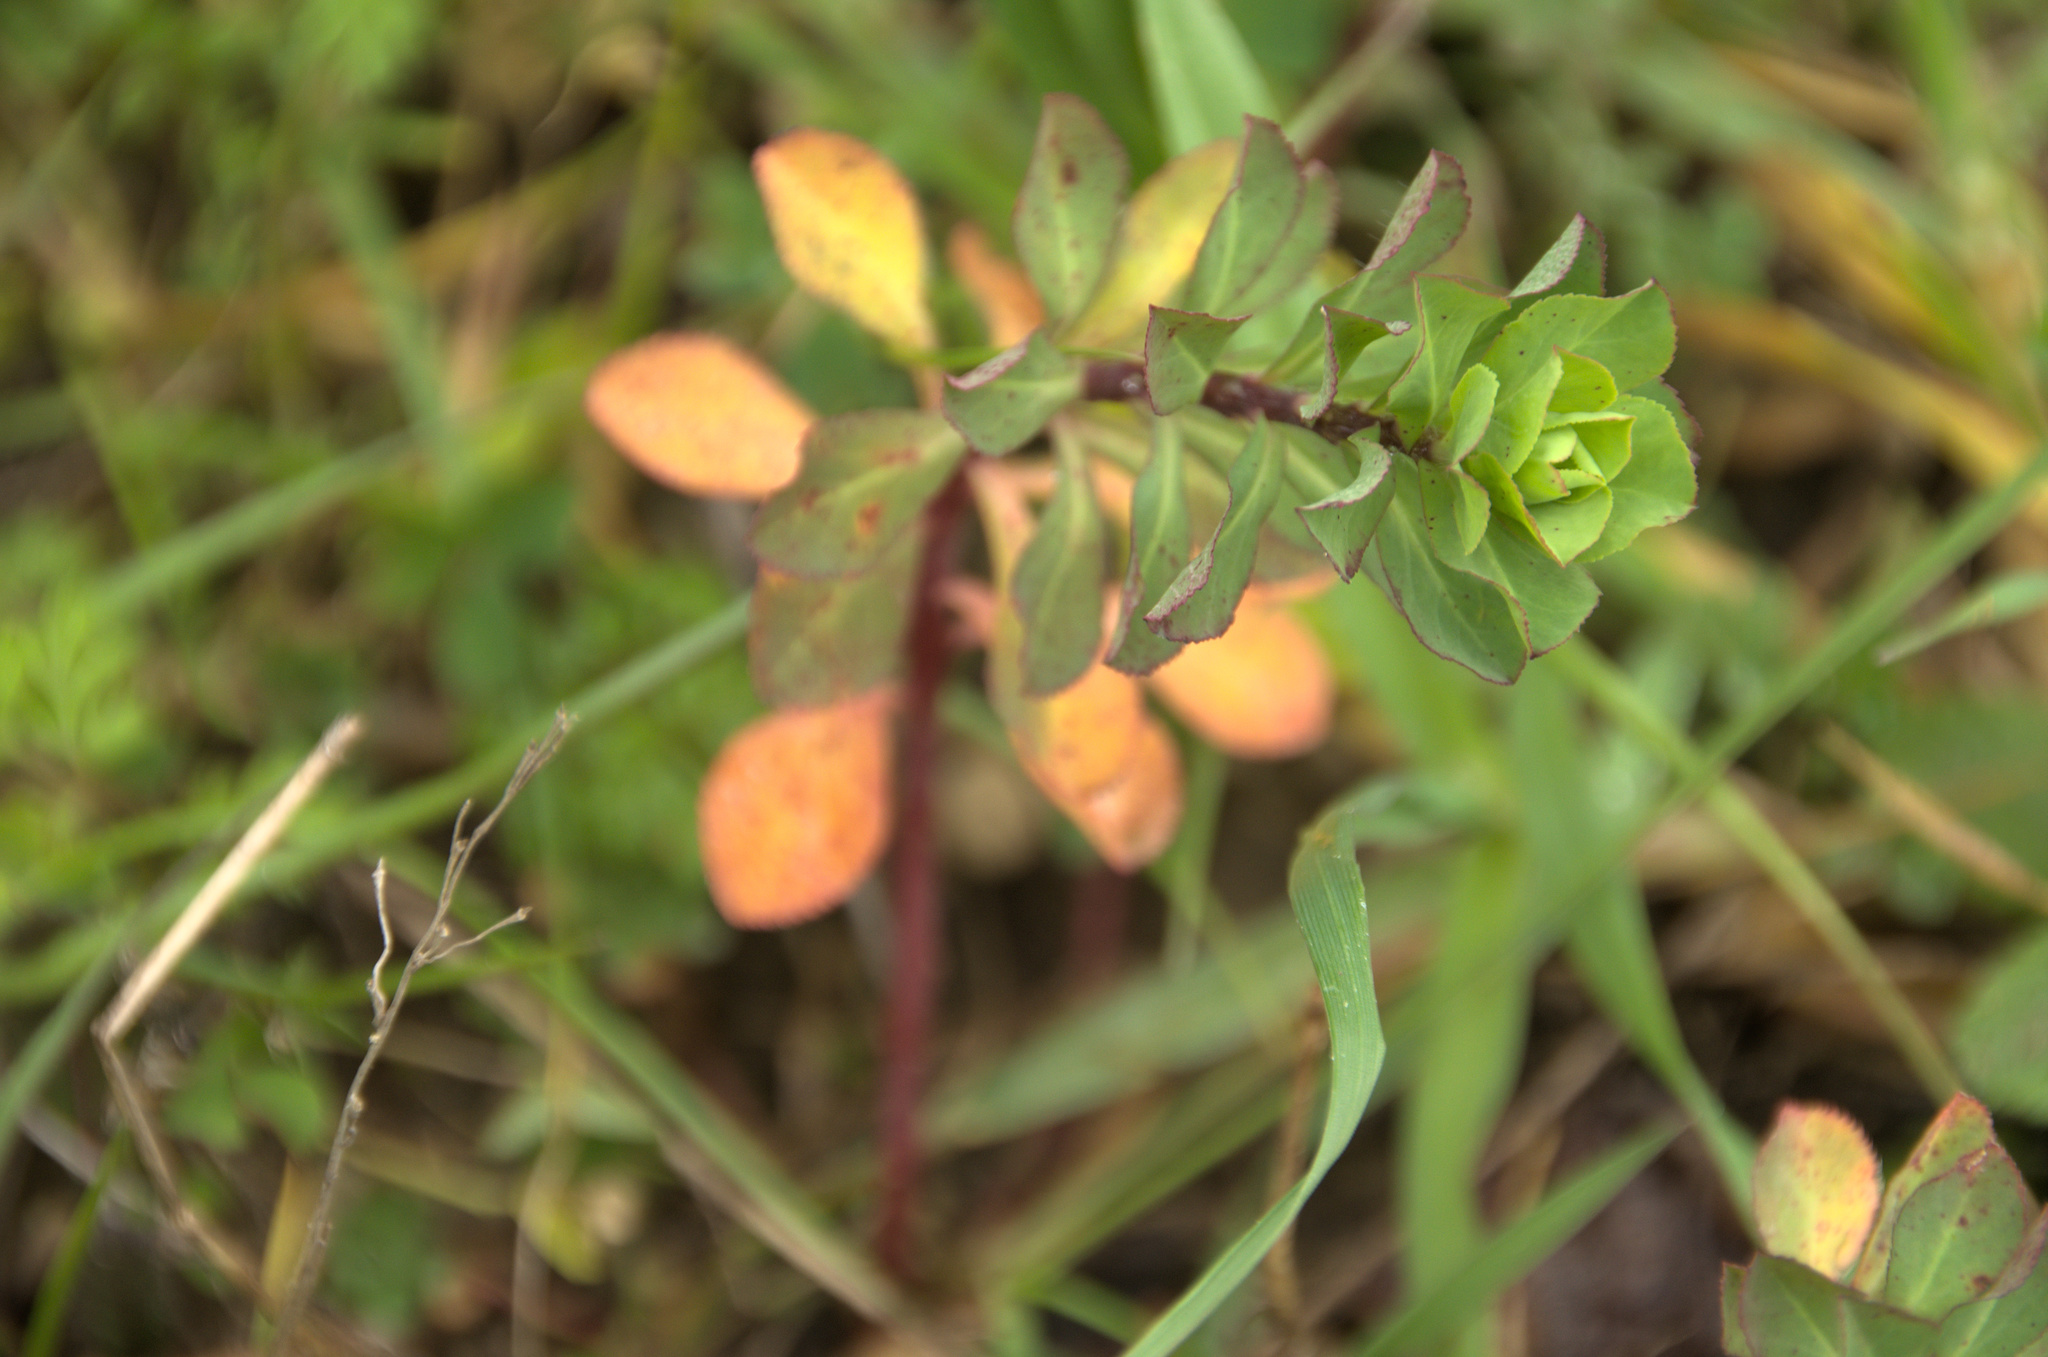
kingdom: Plantae
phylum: Tracheophyta
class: Magnoliopsida
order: Malpighiales
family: Euphorbiaceae
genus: Euphorbia
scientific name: Euphorbia helioscopia
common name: Sun spurge
